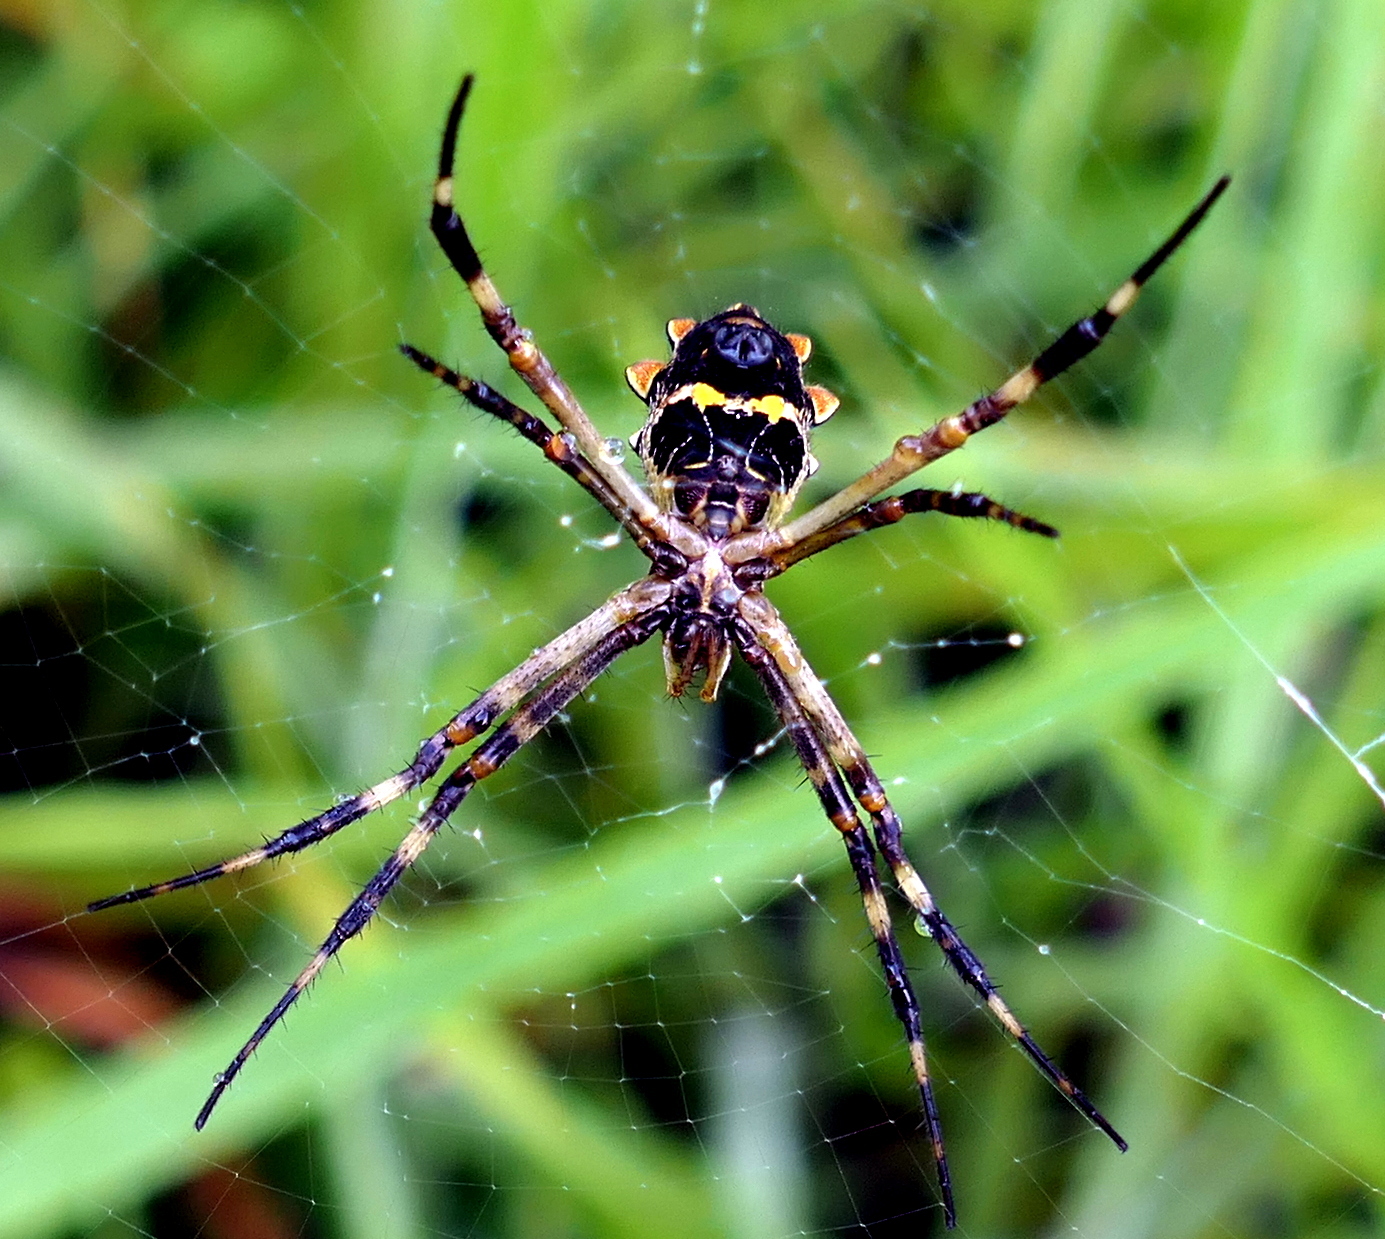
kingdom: Animalia
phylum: Arthropoda
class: Arachnida
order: Araneae
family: Araneidae
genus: Argiope
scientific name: Argiope argentata
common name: Orb weavers
